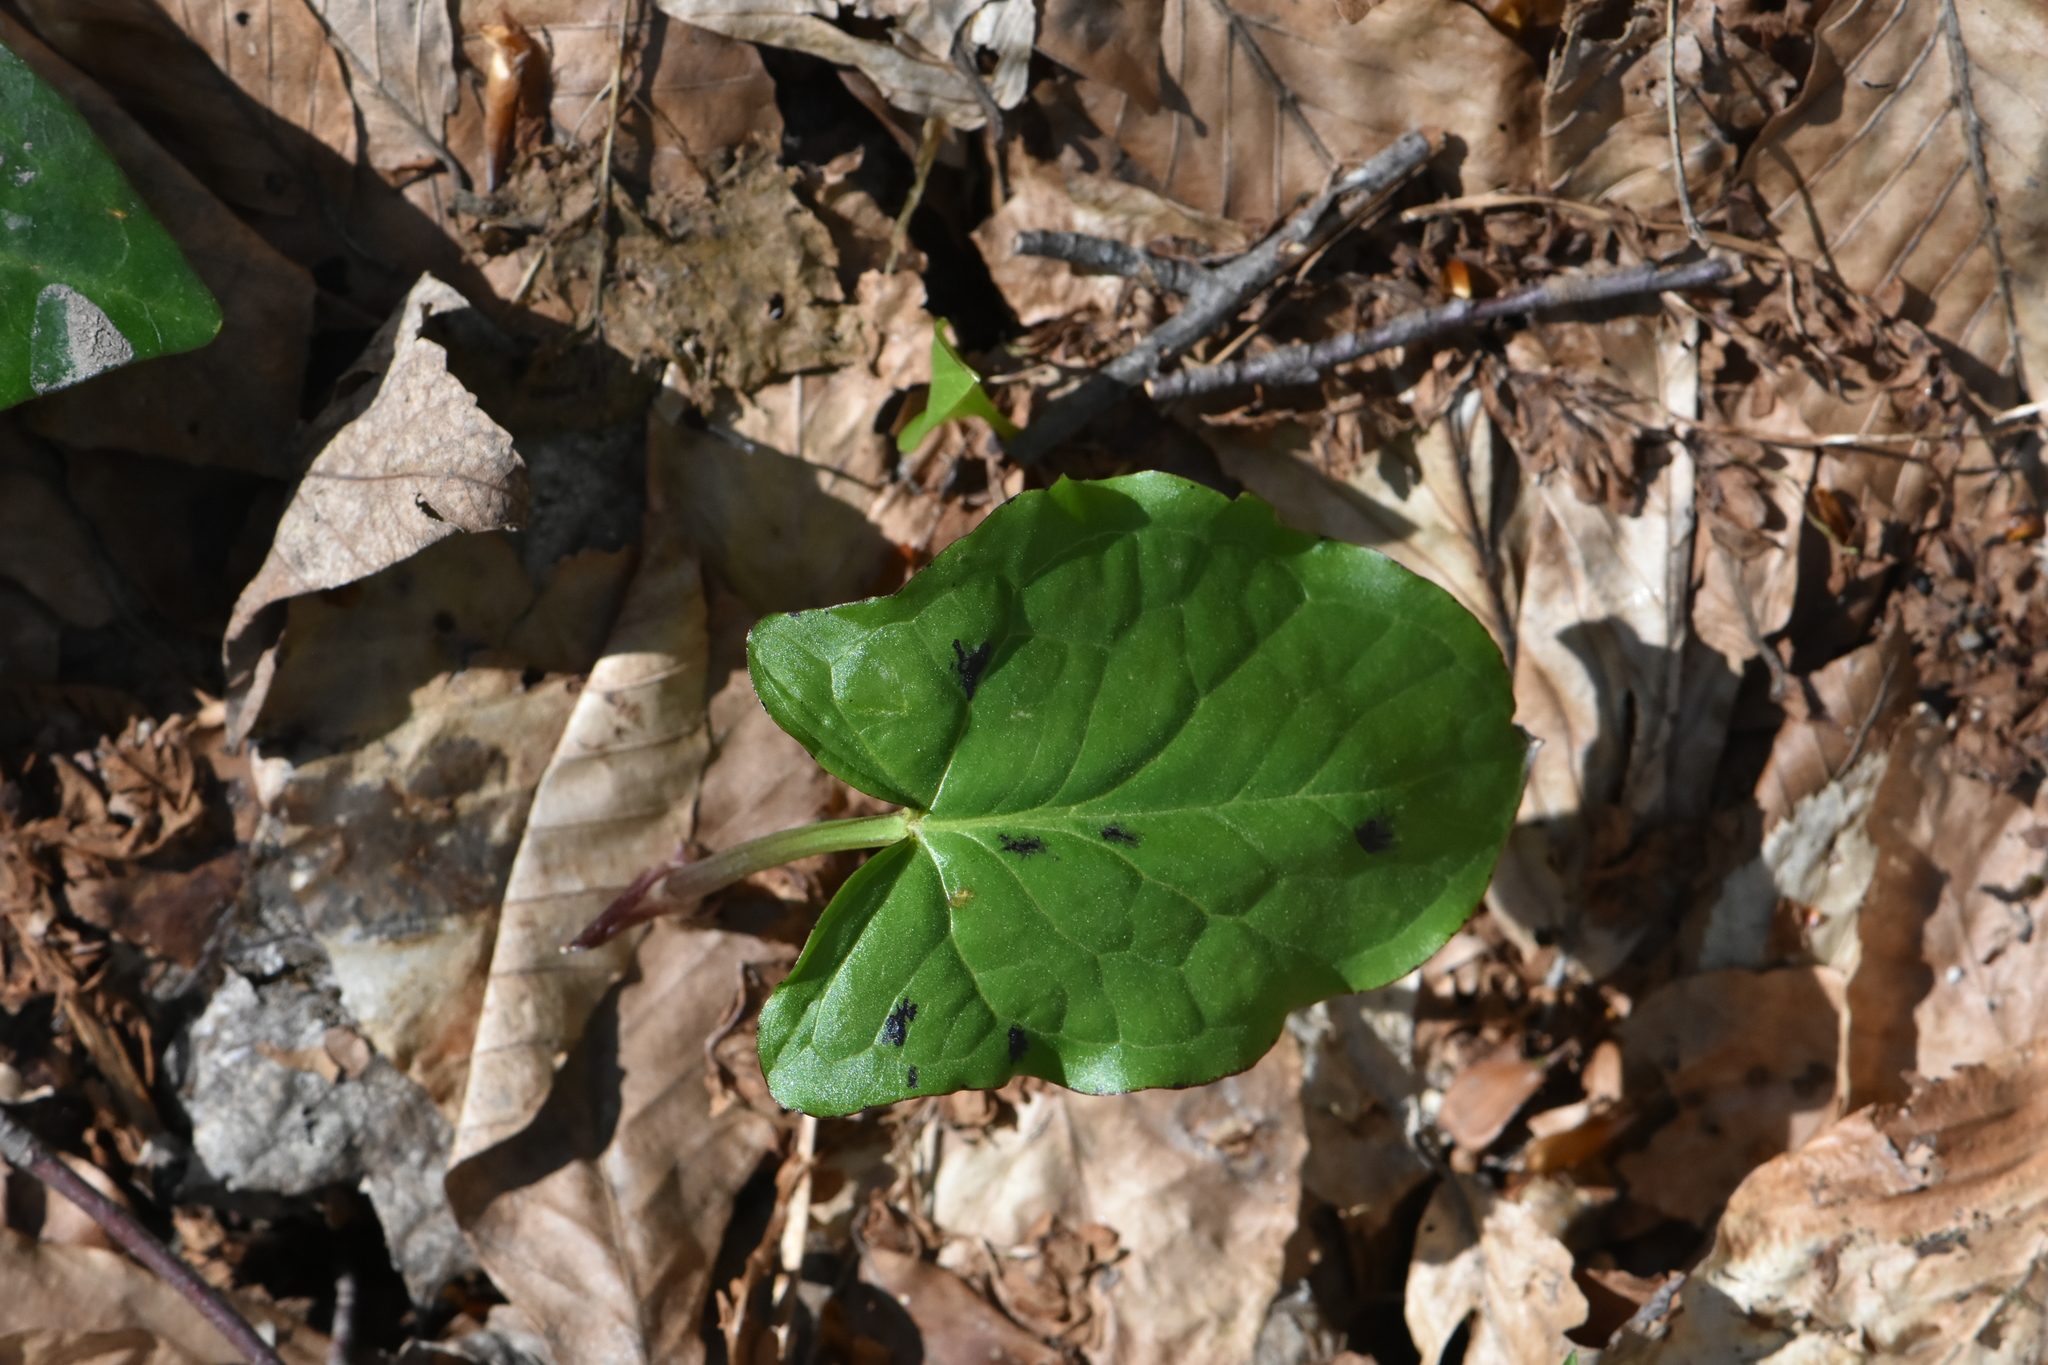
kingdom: Plantae
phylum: Tracheophyta
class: Liliopsida
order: Alismatales
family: Araceae
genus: Arum
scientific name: Arum orientale
